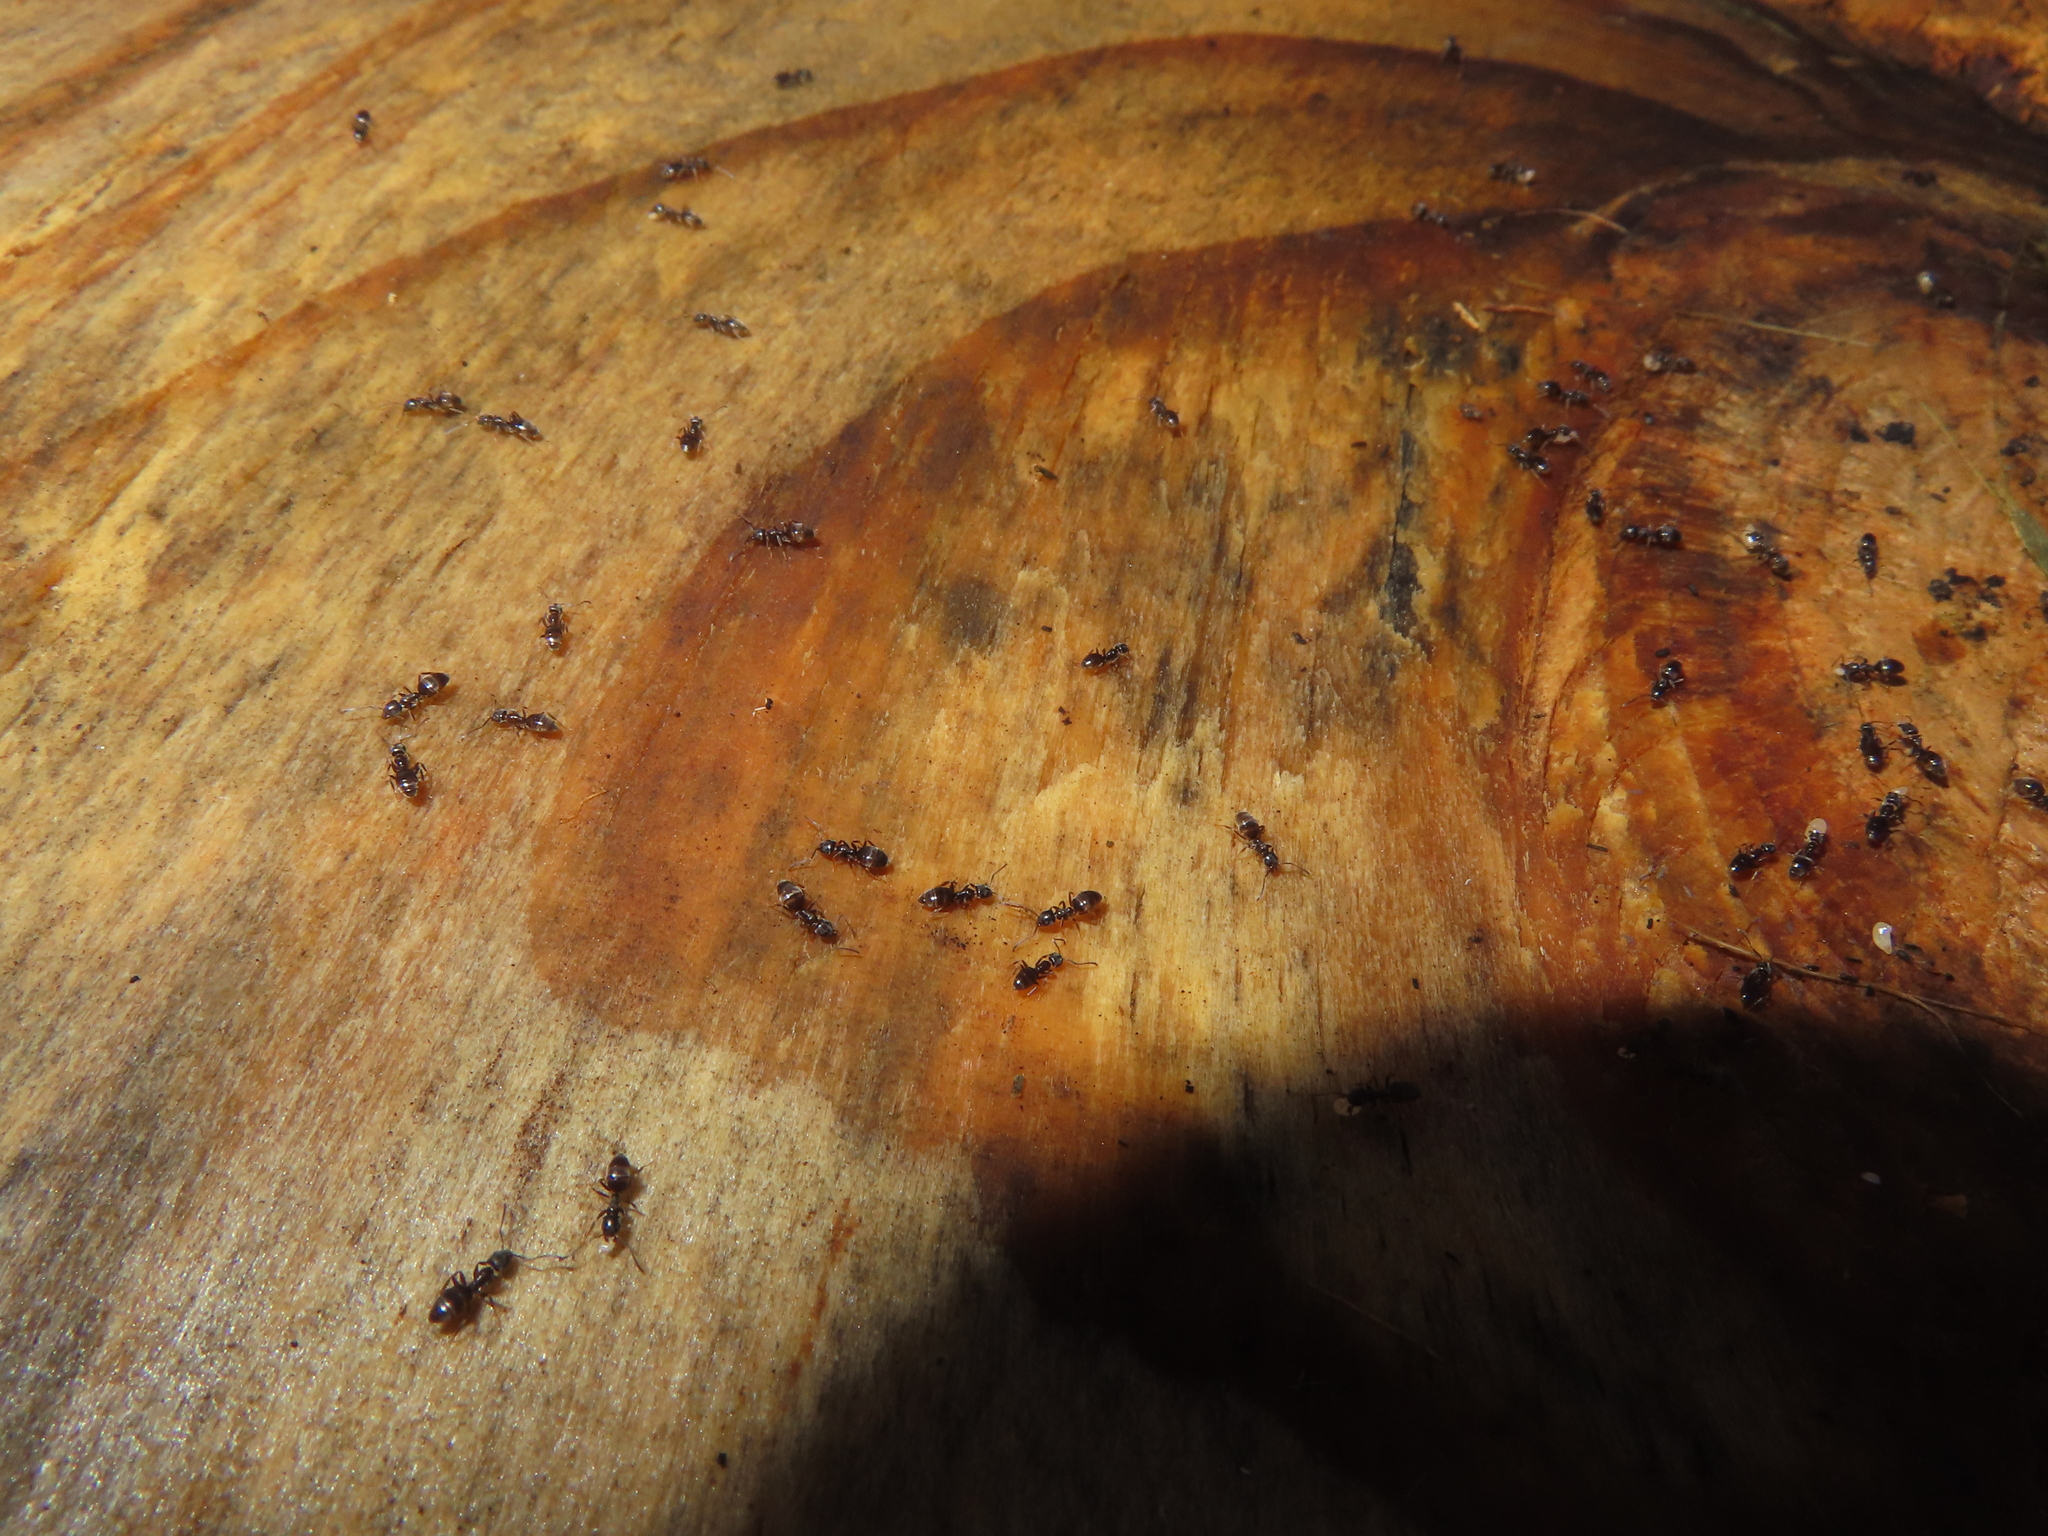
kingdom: Animalia
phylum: Arthropoda
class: Insecta
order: Hymenoptera
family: Formicidae
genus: Tapinoma
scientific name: Tapinoma sessile
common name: Odorous house ant
